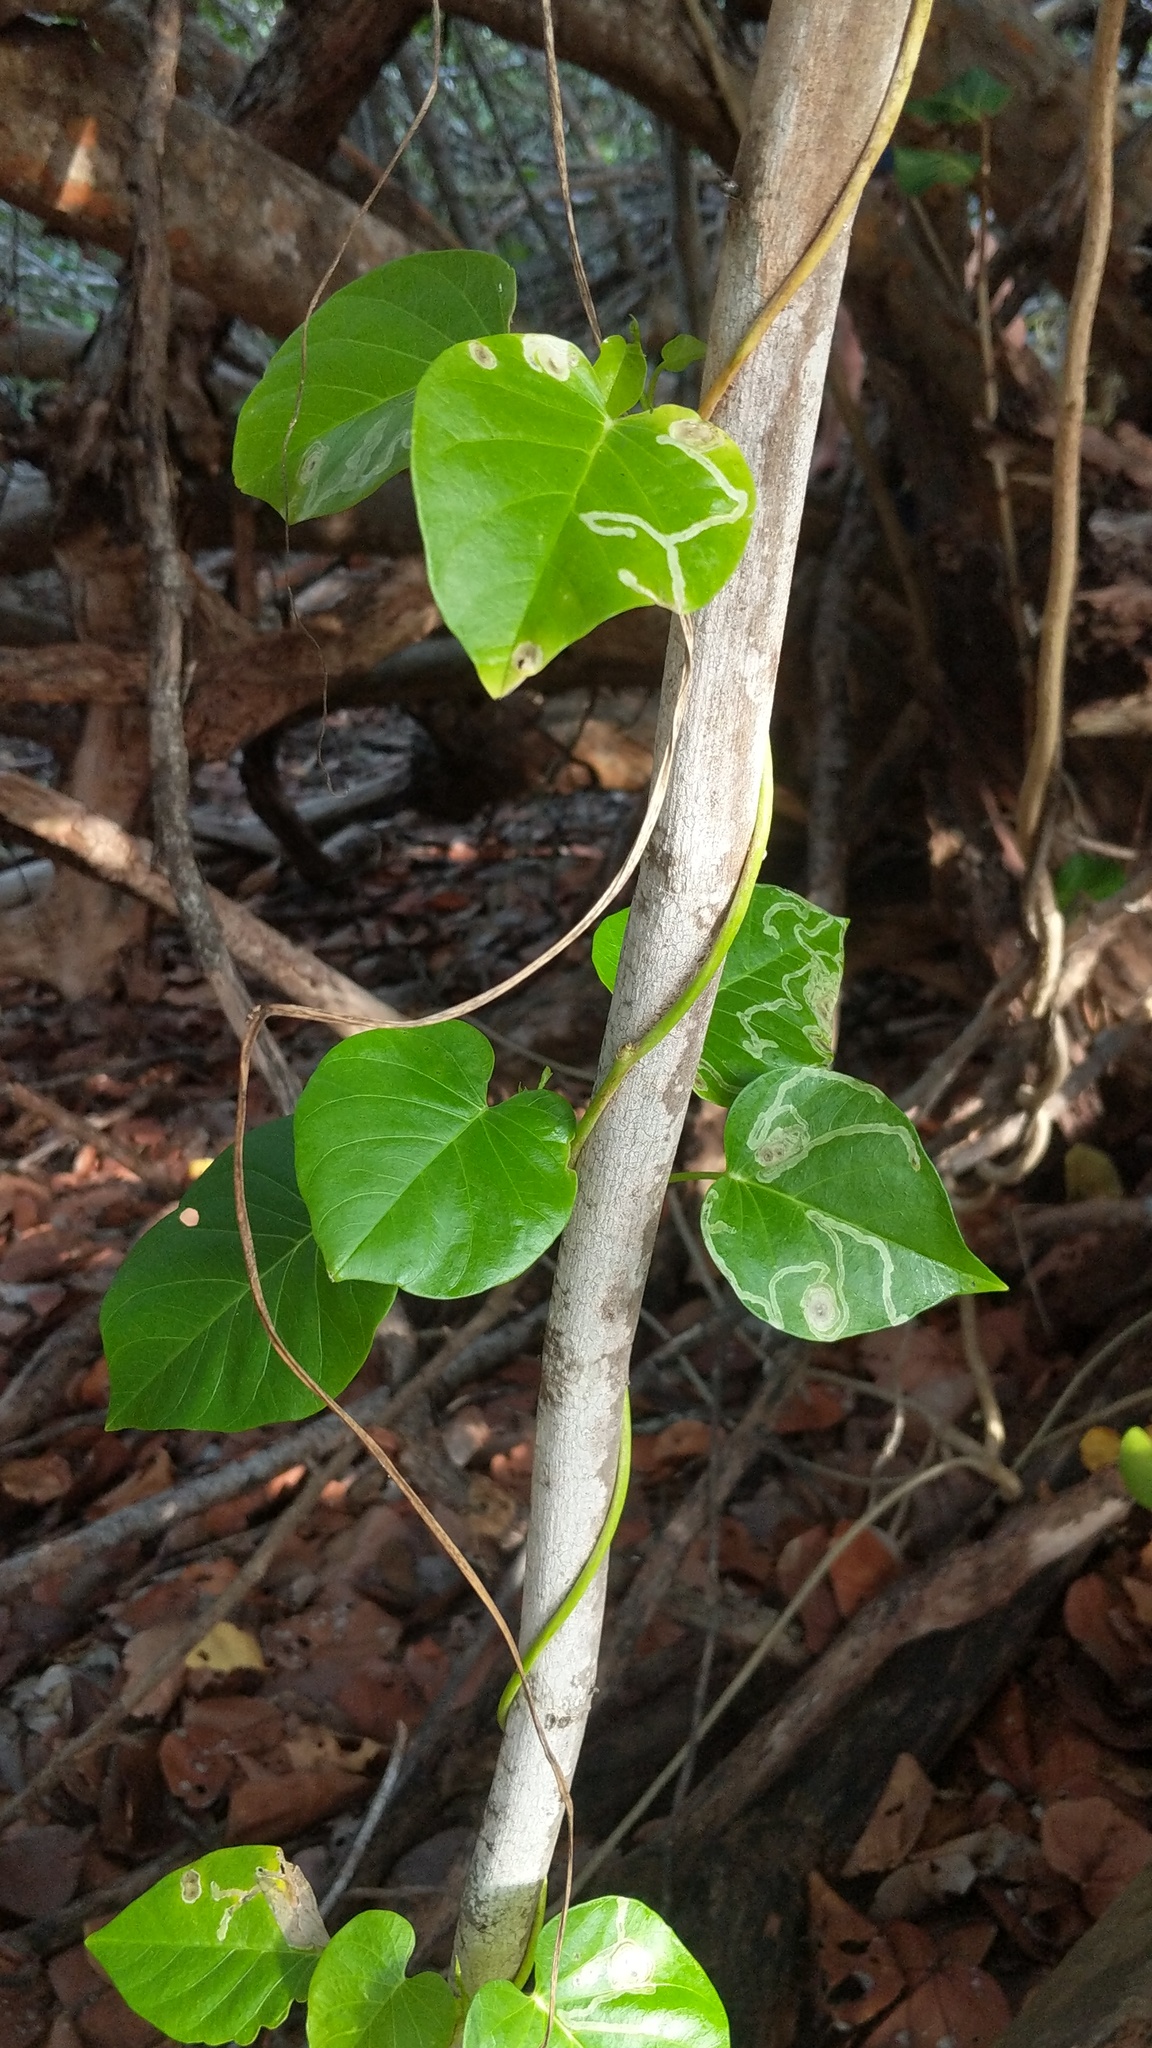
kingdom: Plantae
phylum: Tracheophyta
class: Magnoliopsida
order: Solanales
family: Convolvulaceae
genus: Ipomoea
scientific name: Ipomoea violacea
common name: Beach moonflower
